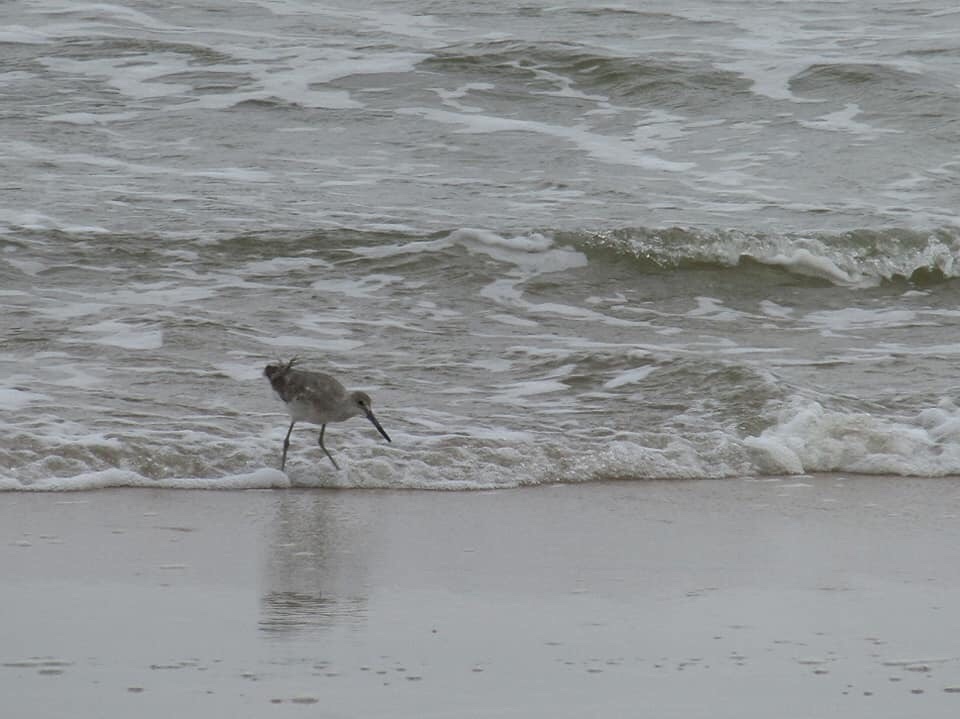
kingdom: Animalia
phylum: Chordata
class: Aves
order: Charadriiformes
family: Scolopacidae
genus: Tringa
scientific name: Tringa semipalmata
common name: Willet
